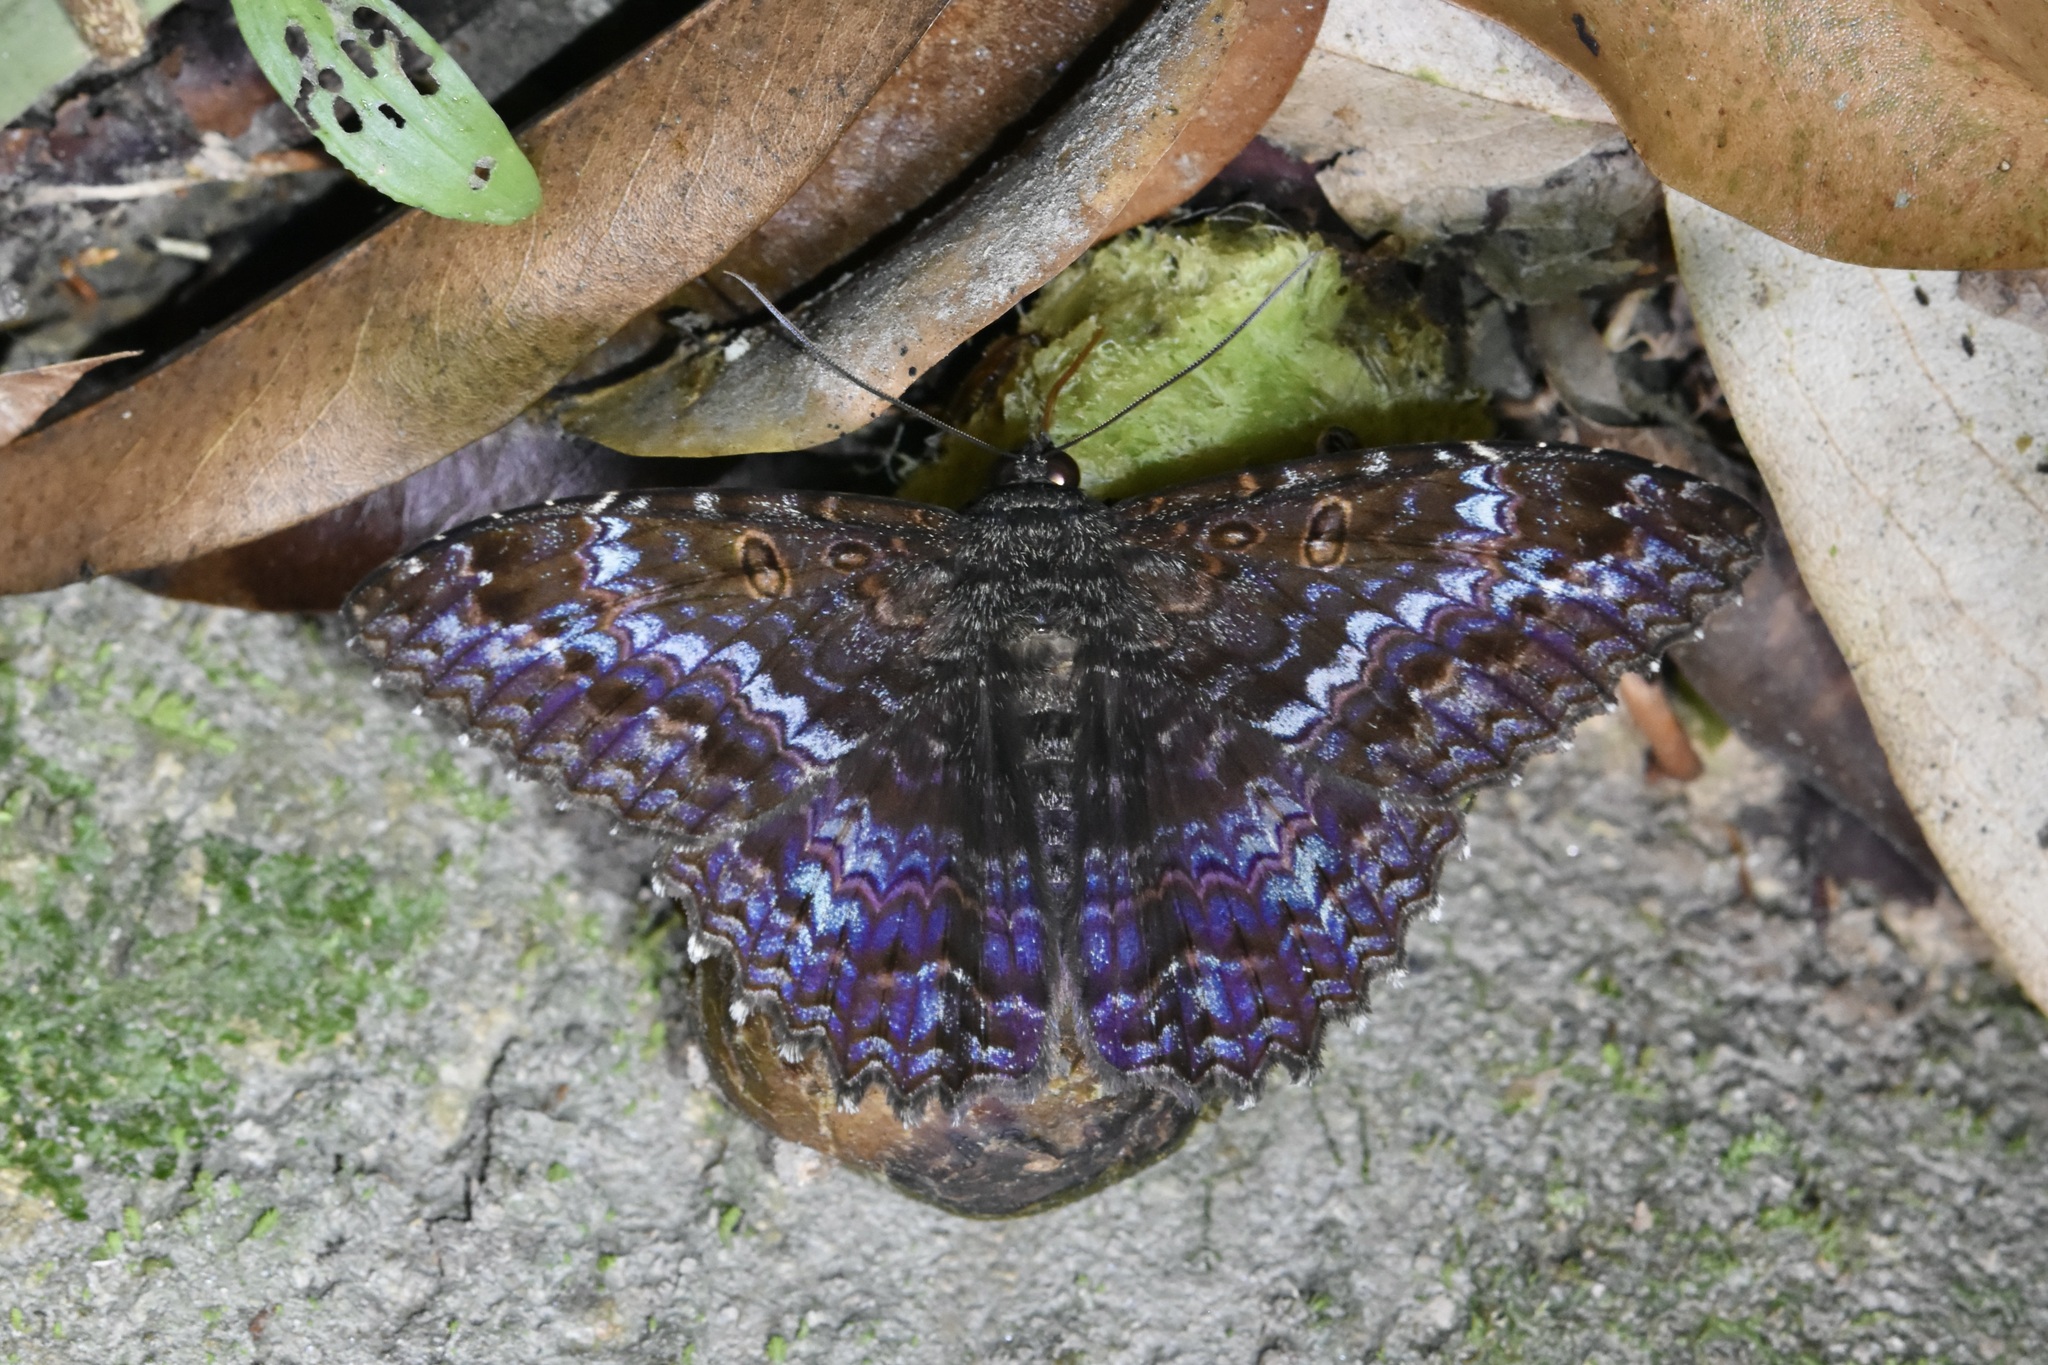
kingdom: Animalia
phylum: Arthropoda
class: Insecta
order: Lepidoptera
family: Erebidae
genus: Letis
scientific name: Letis iphianasse
